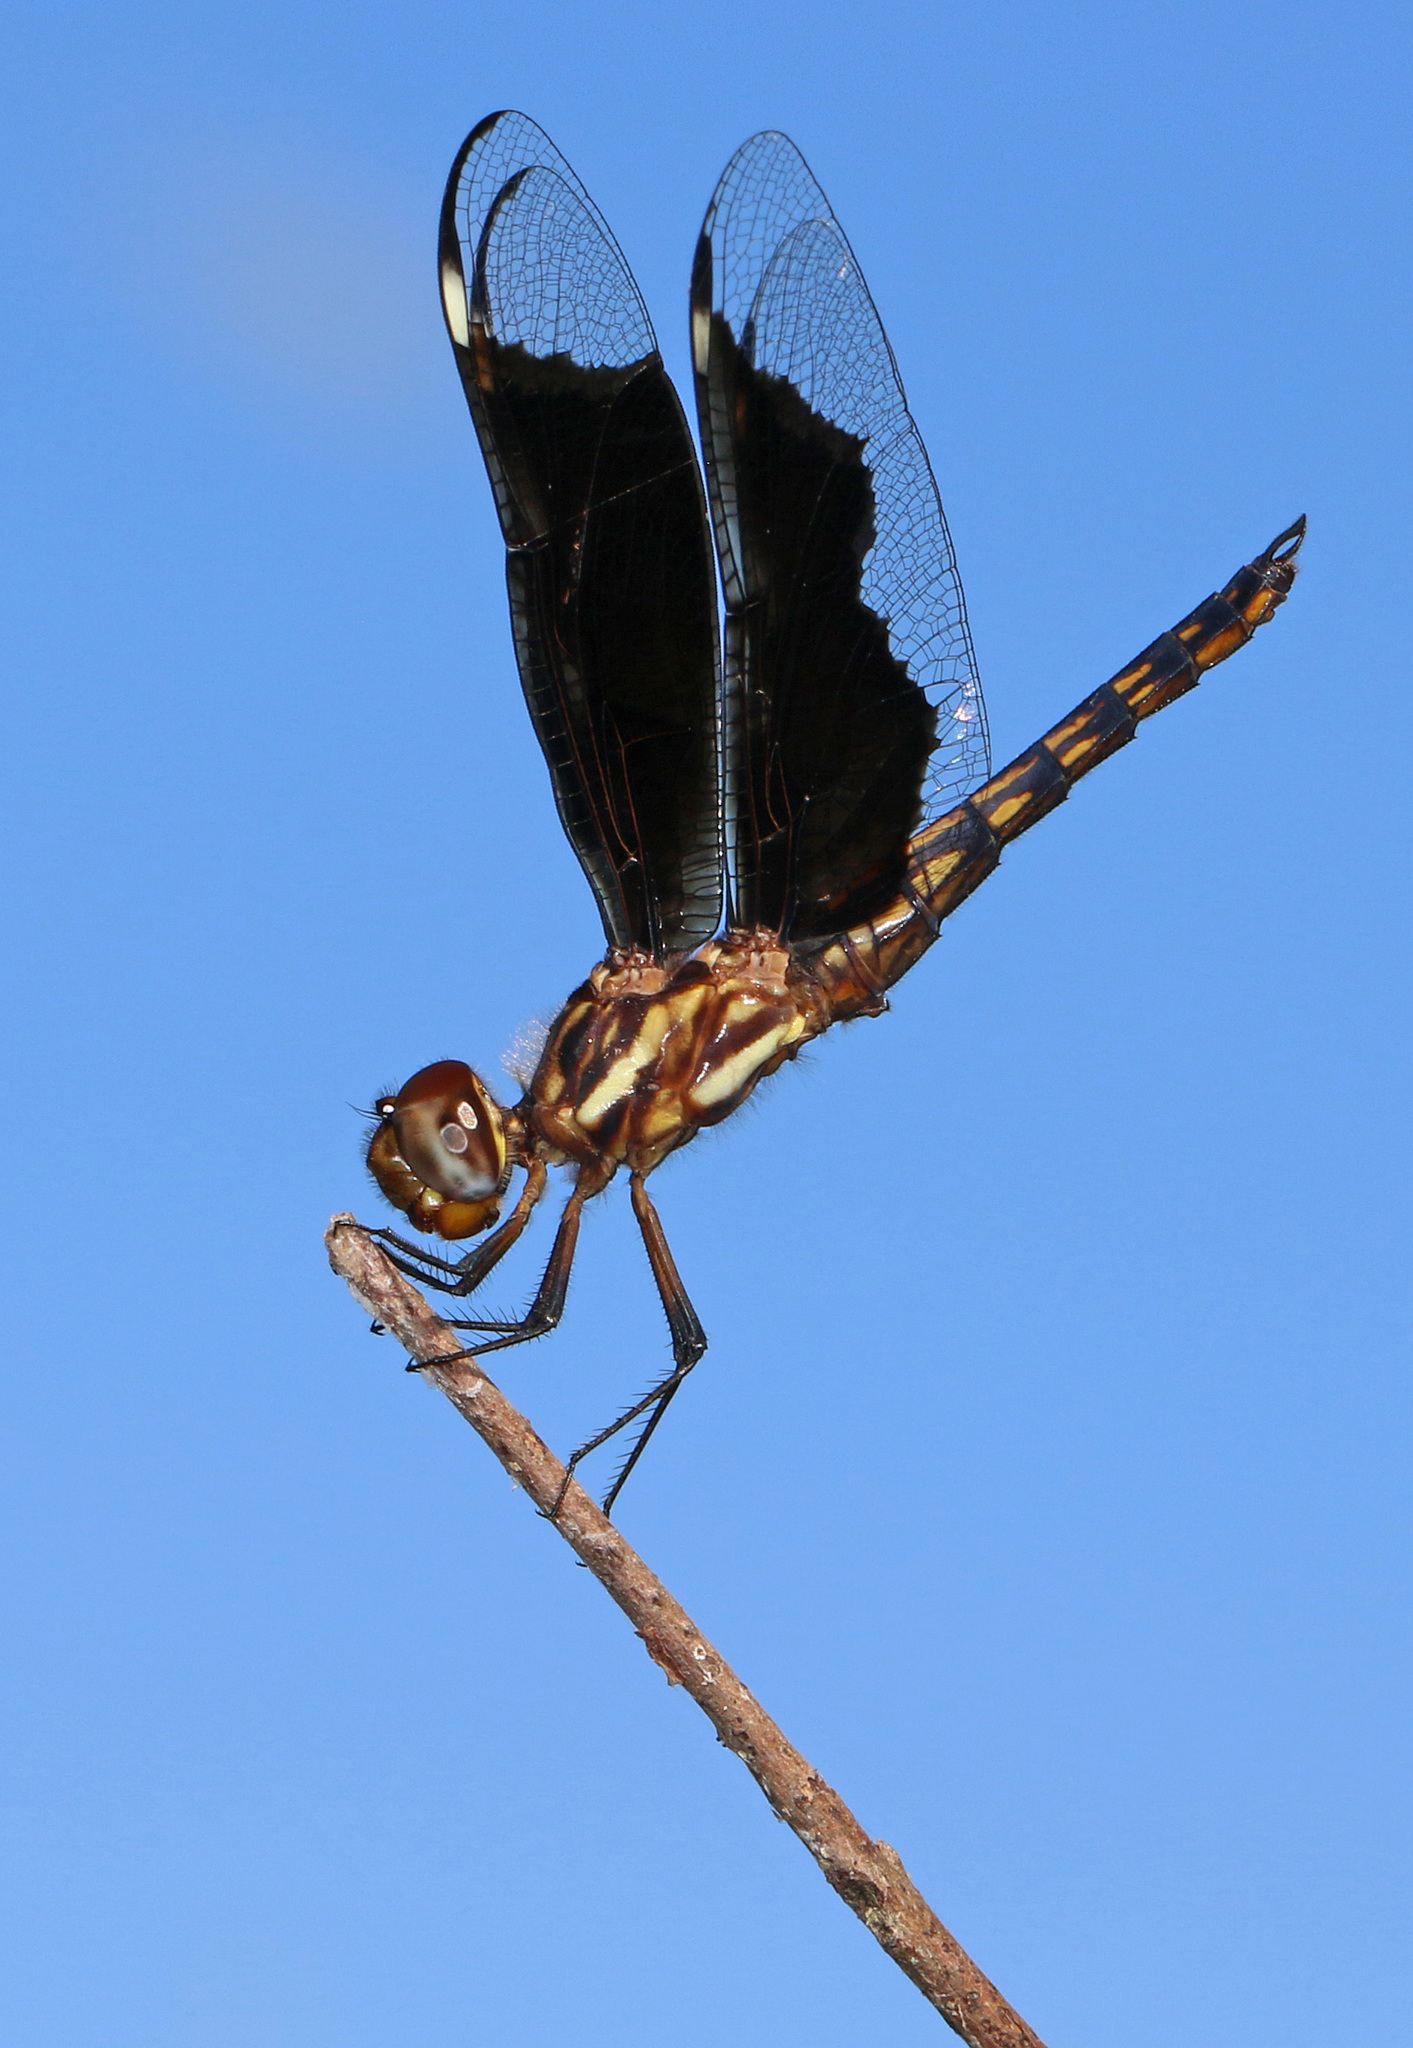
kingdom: Animalia
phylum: Arthropoda
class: Insecta
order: Odonata
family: Libellulidae
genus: Palpopleura
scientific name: Palpopleura lucia
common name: Lucia widow
